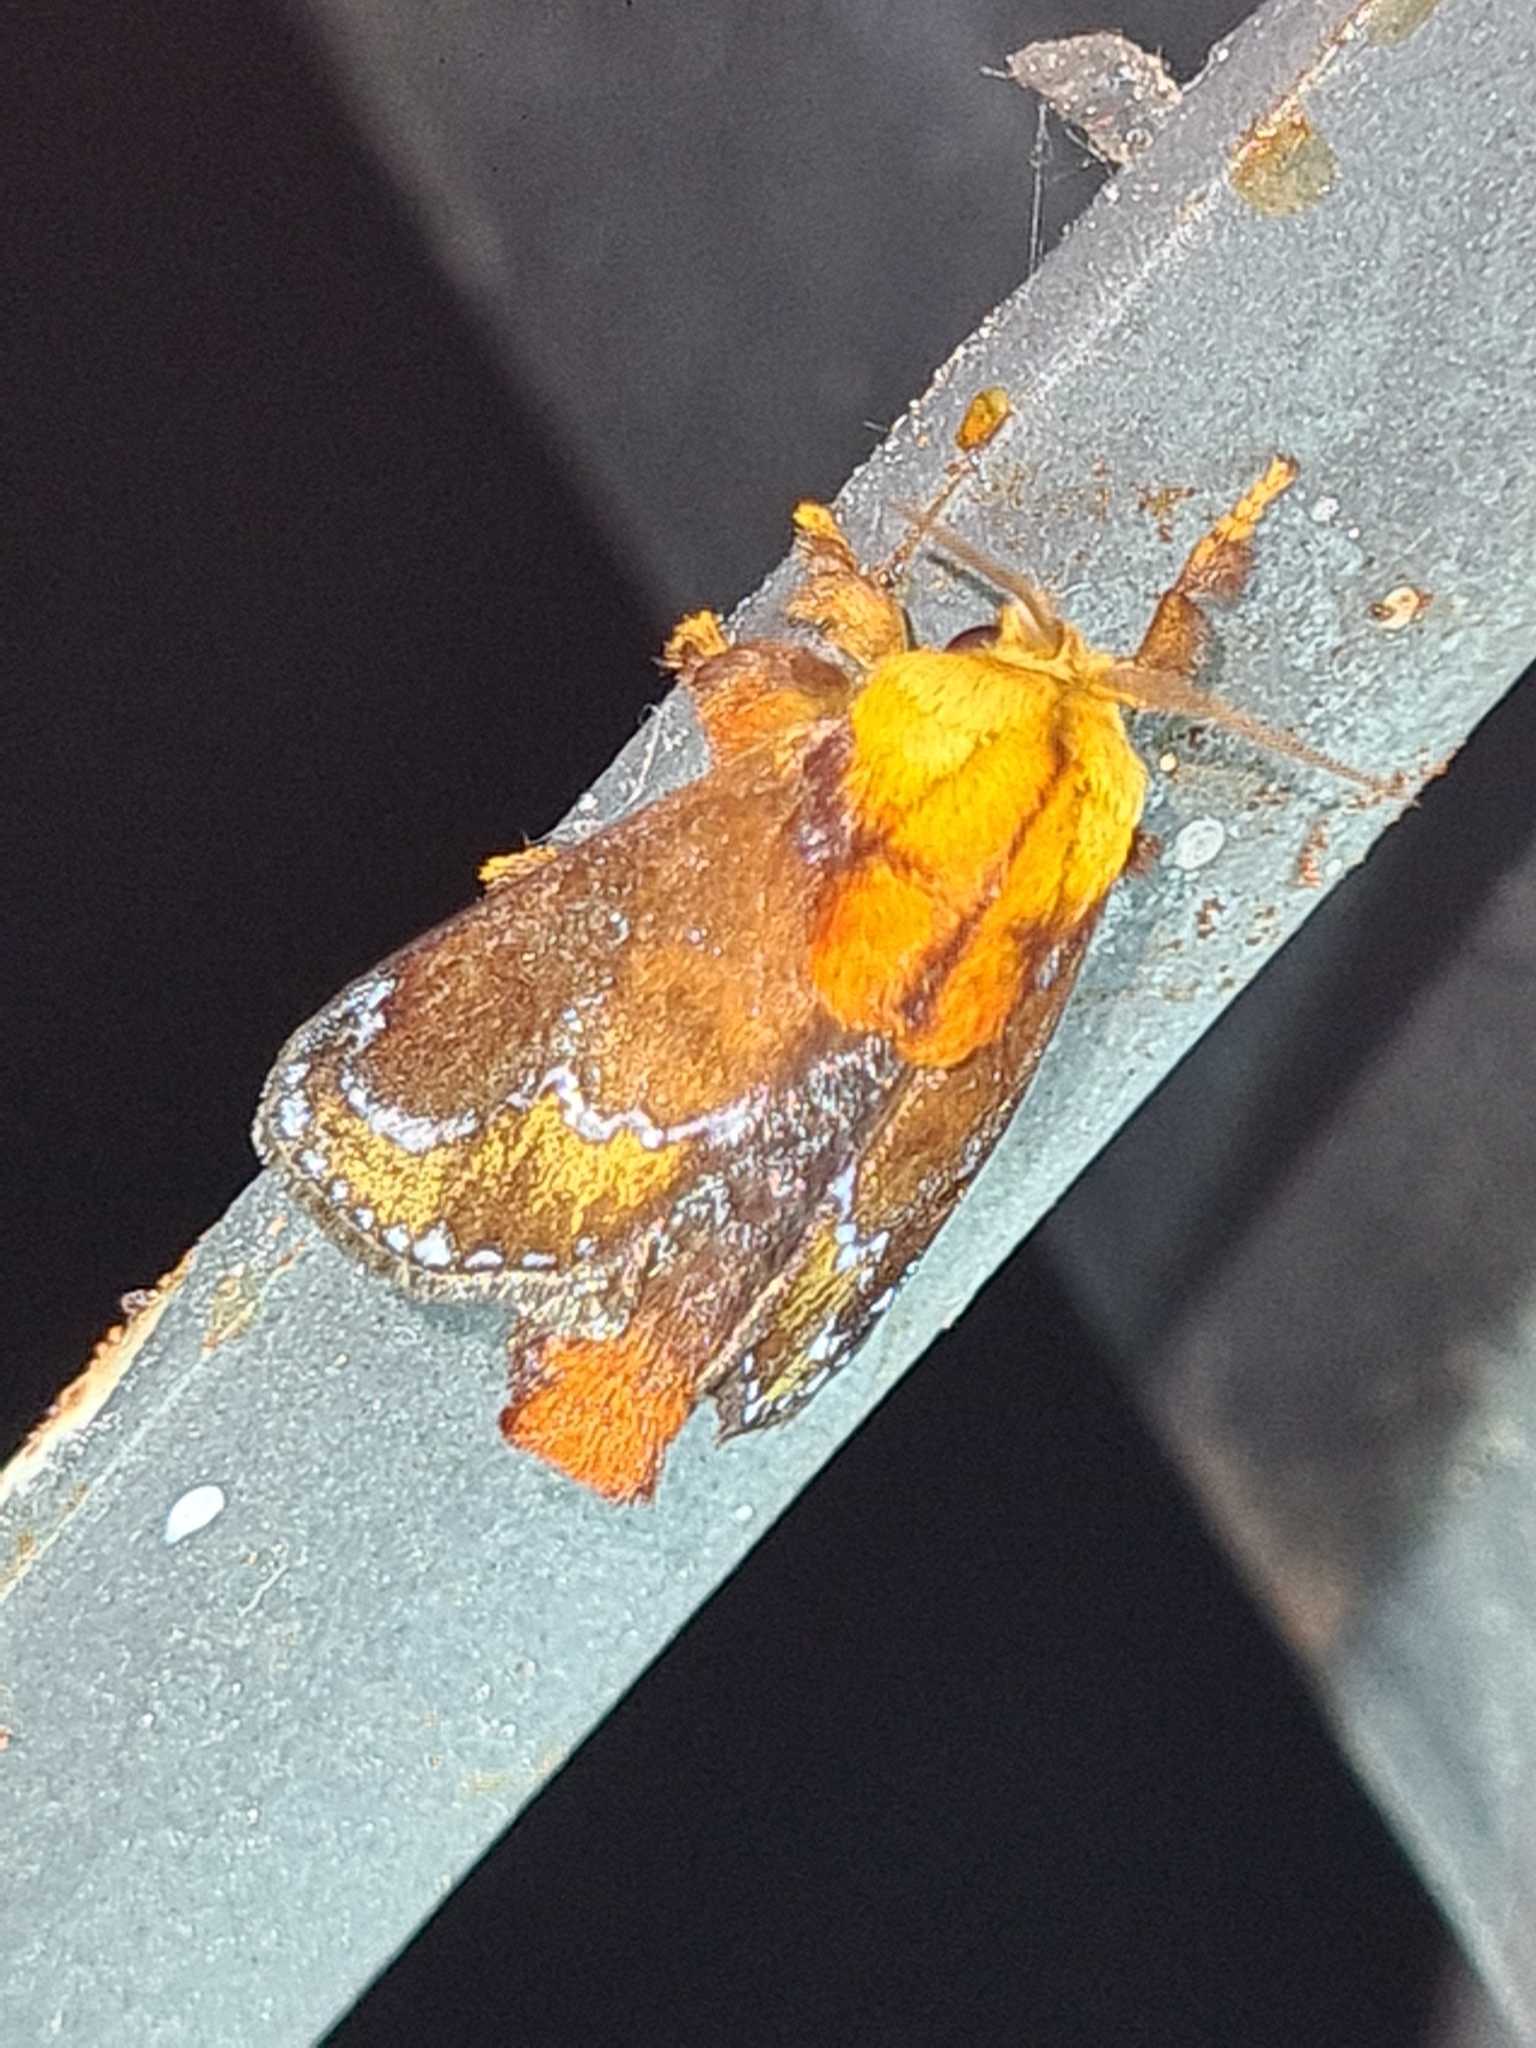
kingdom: Animalia
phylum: Arthropoda
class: Insecta
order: Lepidoptera
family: Limacodidae
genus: Miresa
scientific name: Miresa clarissa
